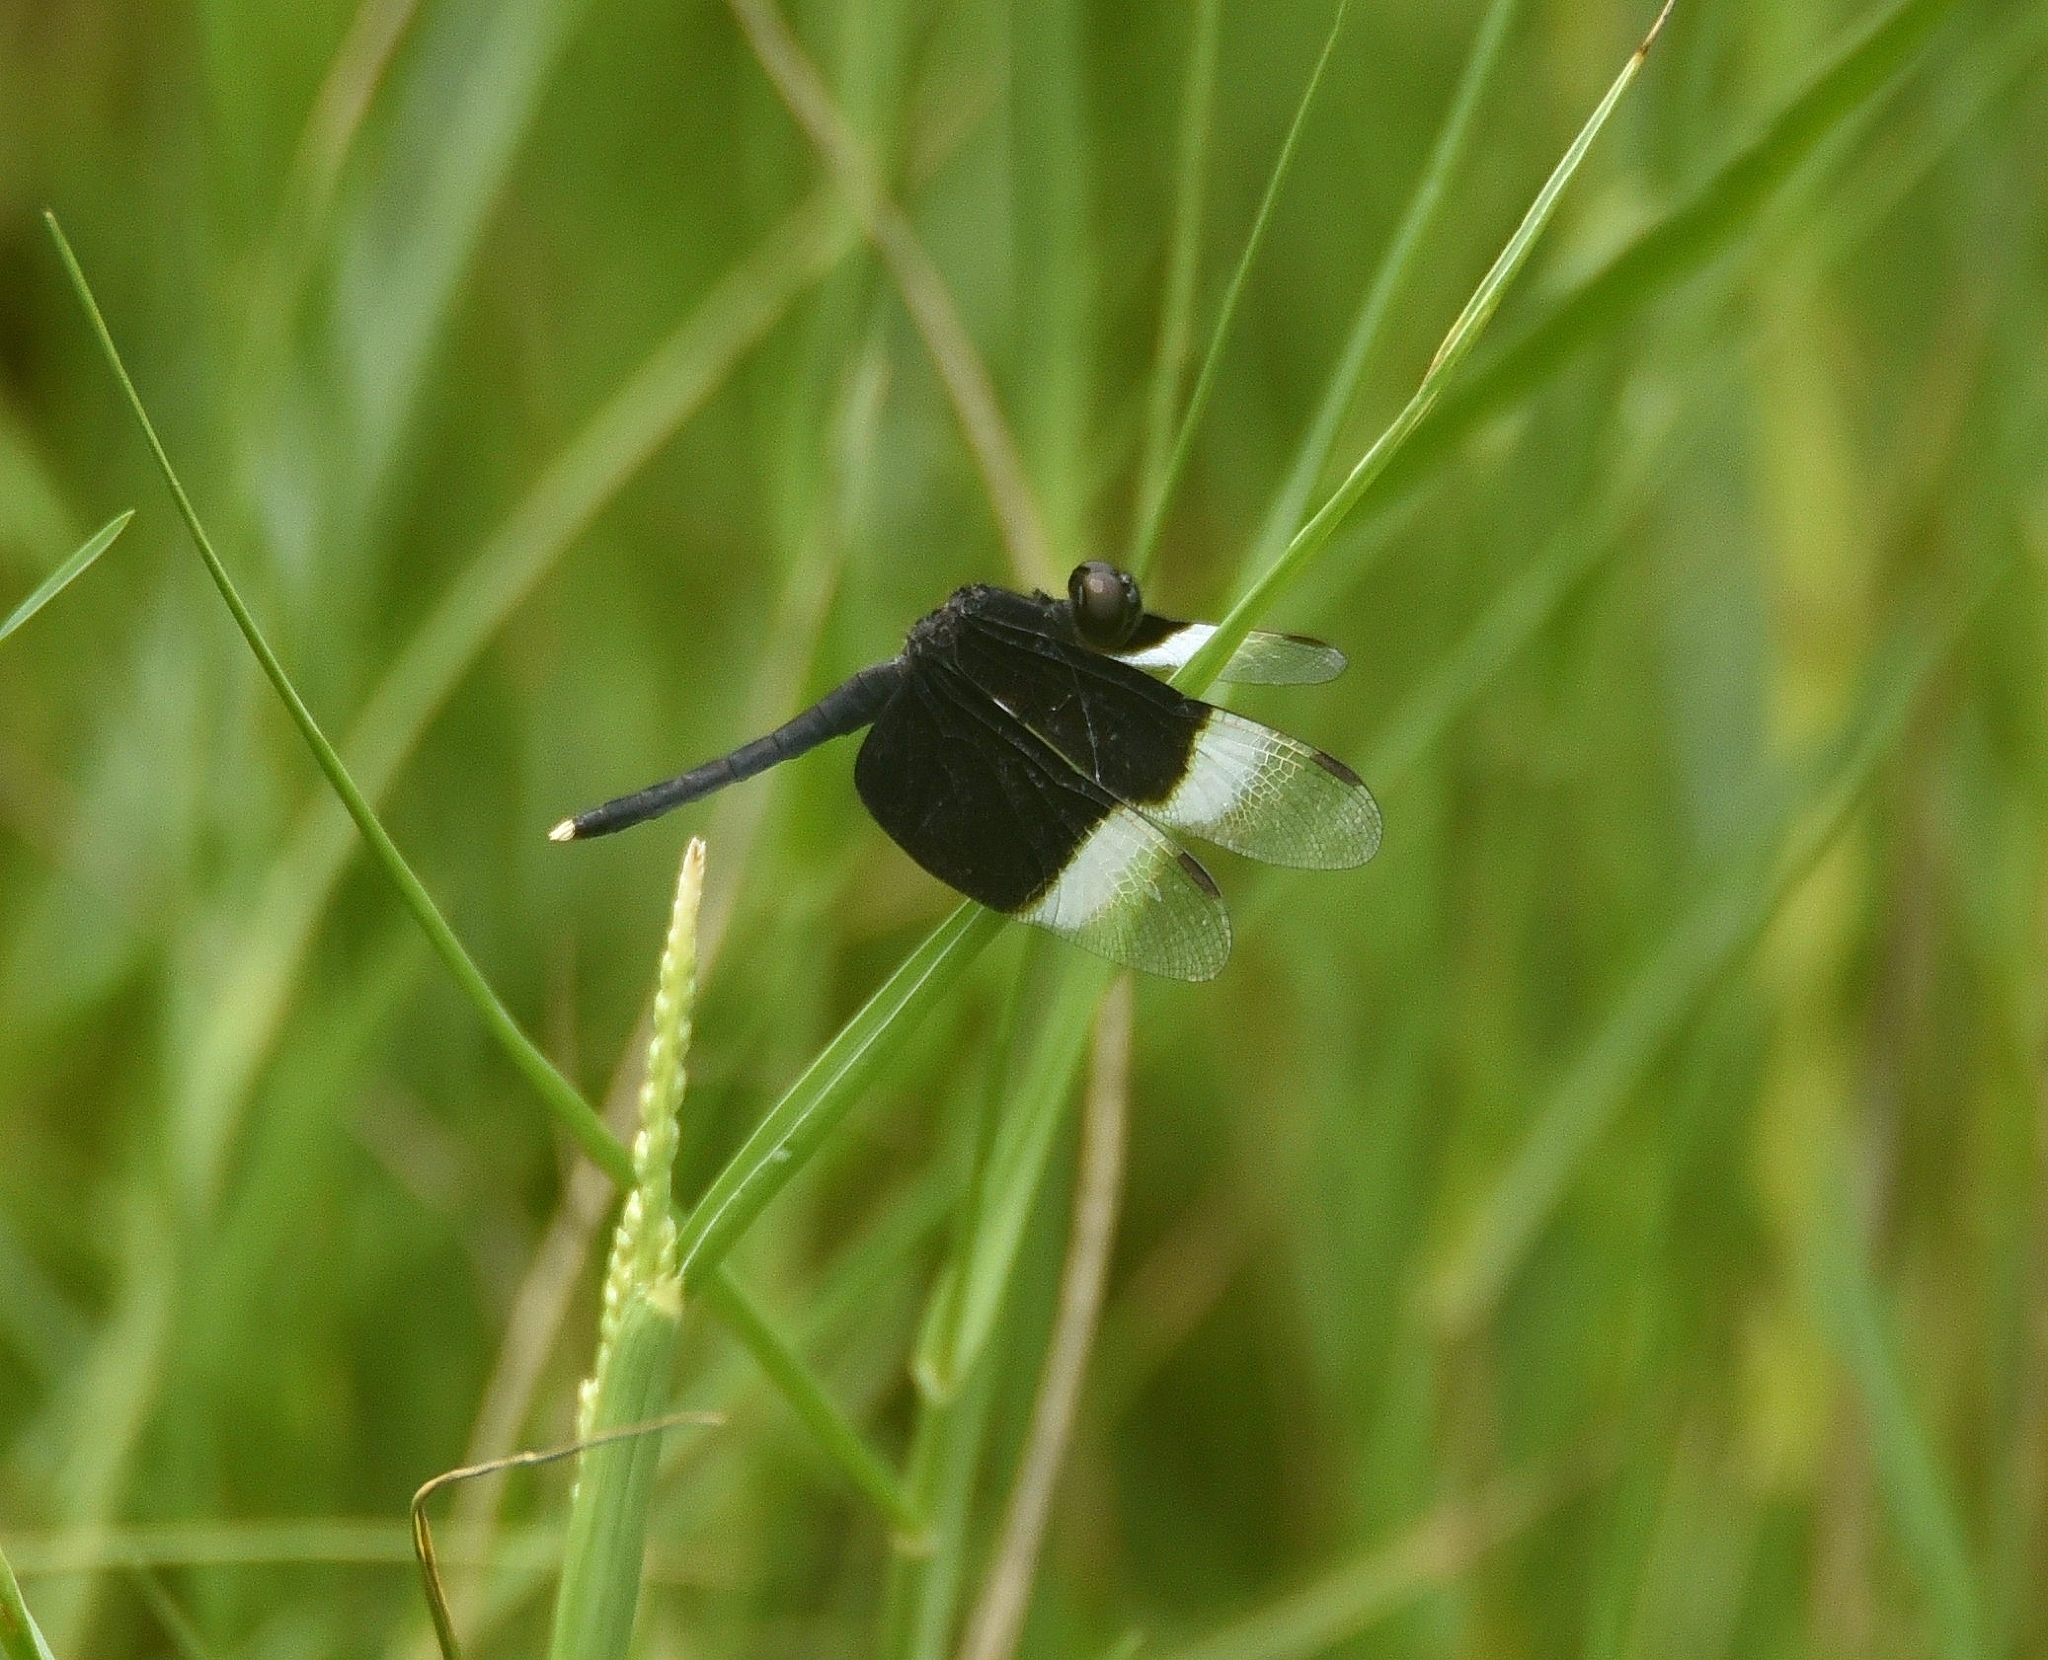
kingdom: Animalia
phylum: Arthropoda
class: Insecta
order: Odonata
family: Libellulidae
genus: Neurothemis
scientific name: Neurothemis tullia
